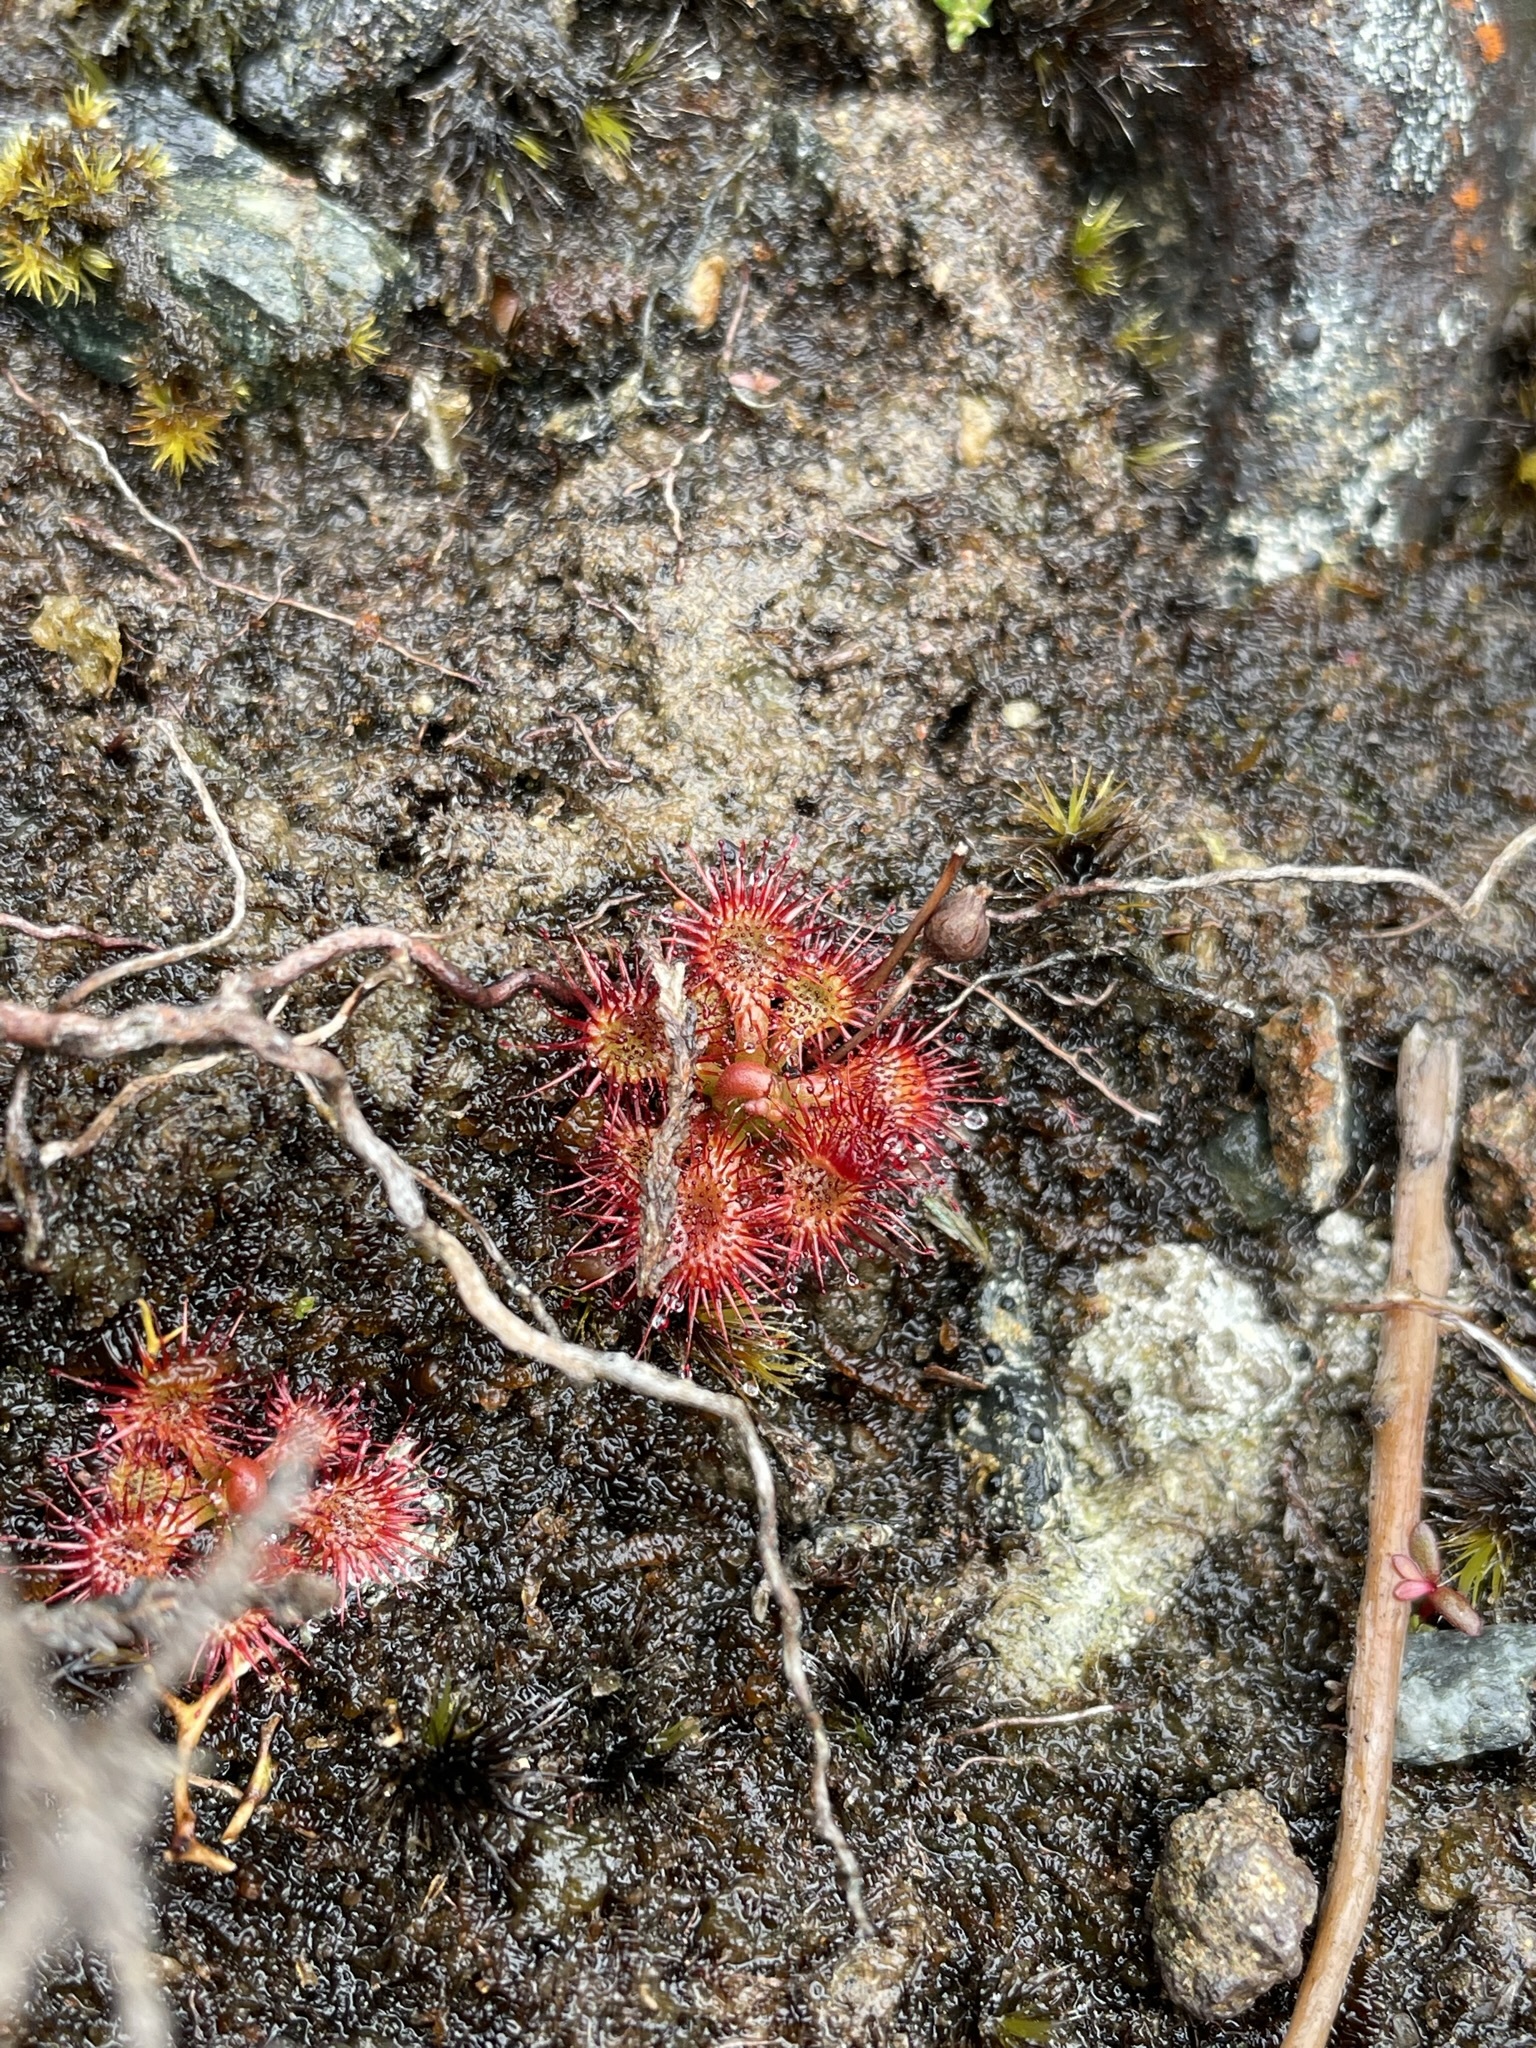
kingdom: Plantae
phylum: Tracheophyta
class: Magnoliopsida
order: Caryophyllales
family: Droseraceae
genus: Drosera
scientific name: Drosera spatulata
